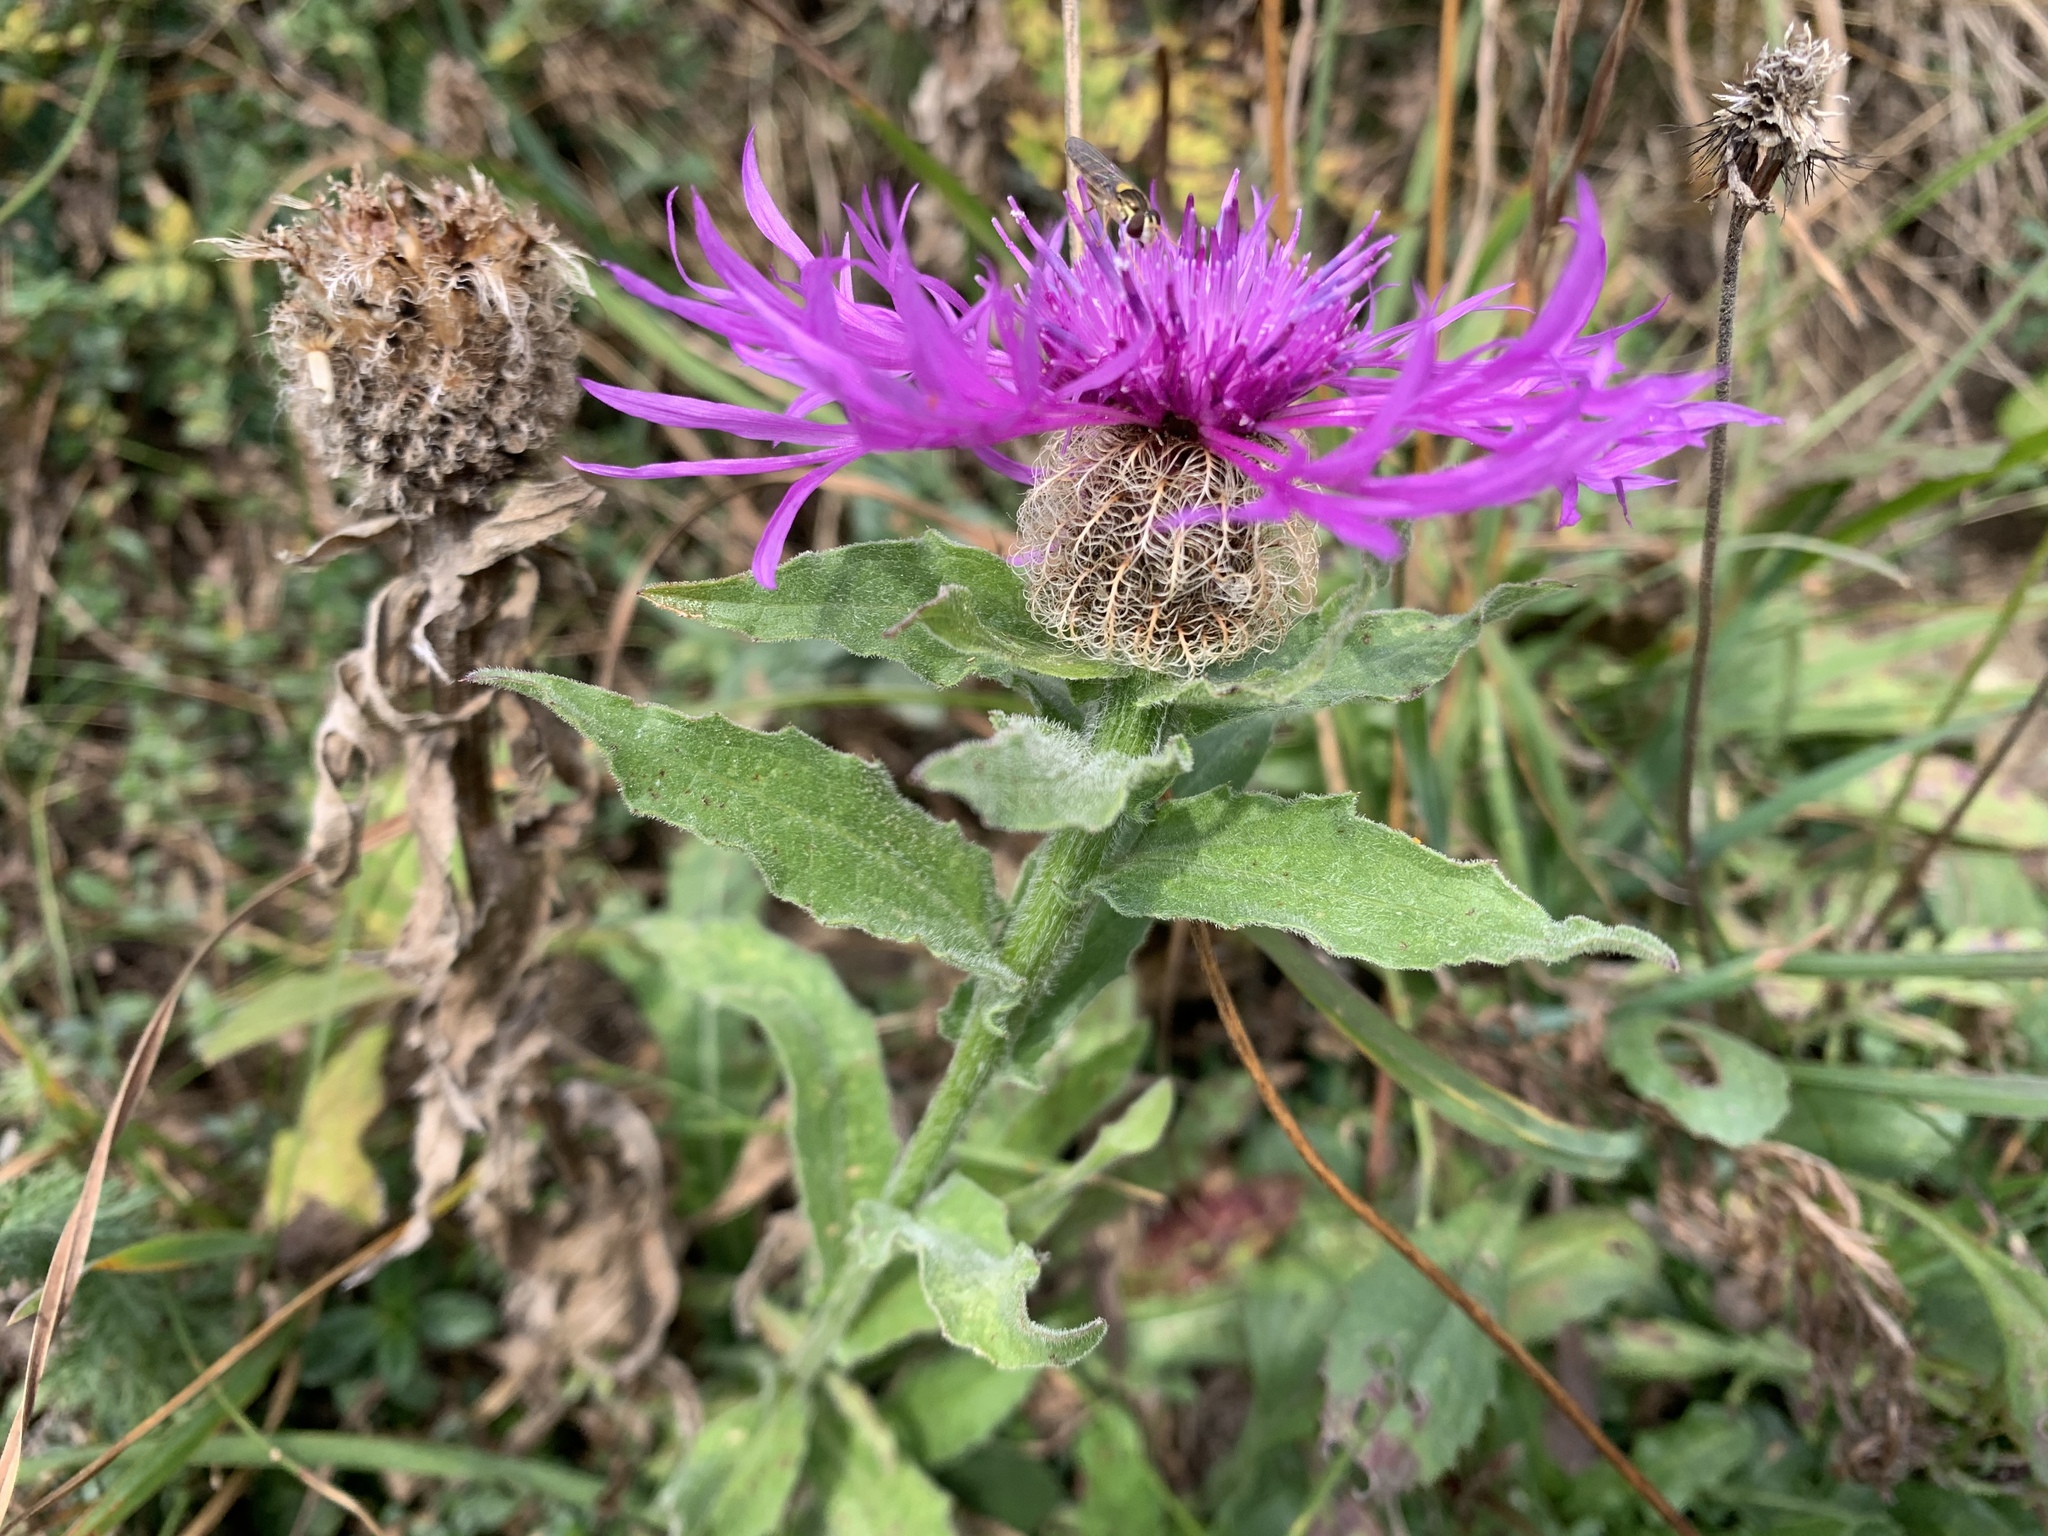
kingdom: Plantae
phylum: Tracheophyta
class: Magnoliopsida
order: Asterales
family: Asteraceae
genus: Centaurea
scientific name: Centaurea nervosa
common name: Singleflower knapweed
